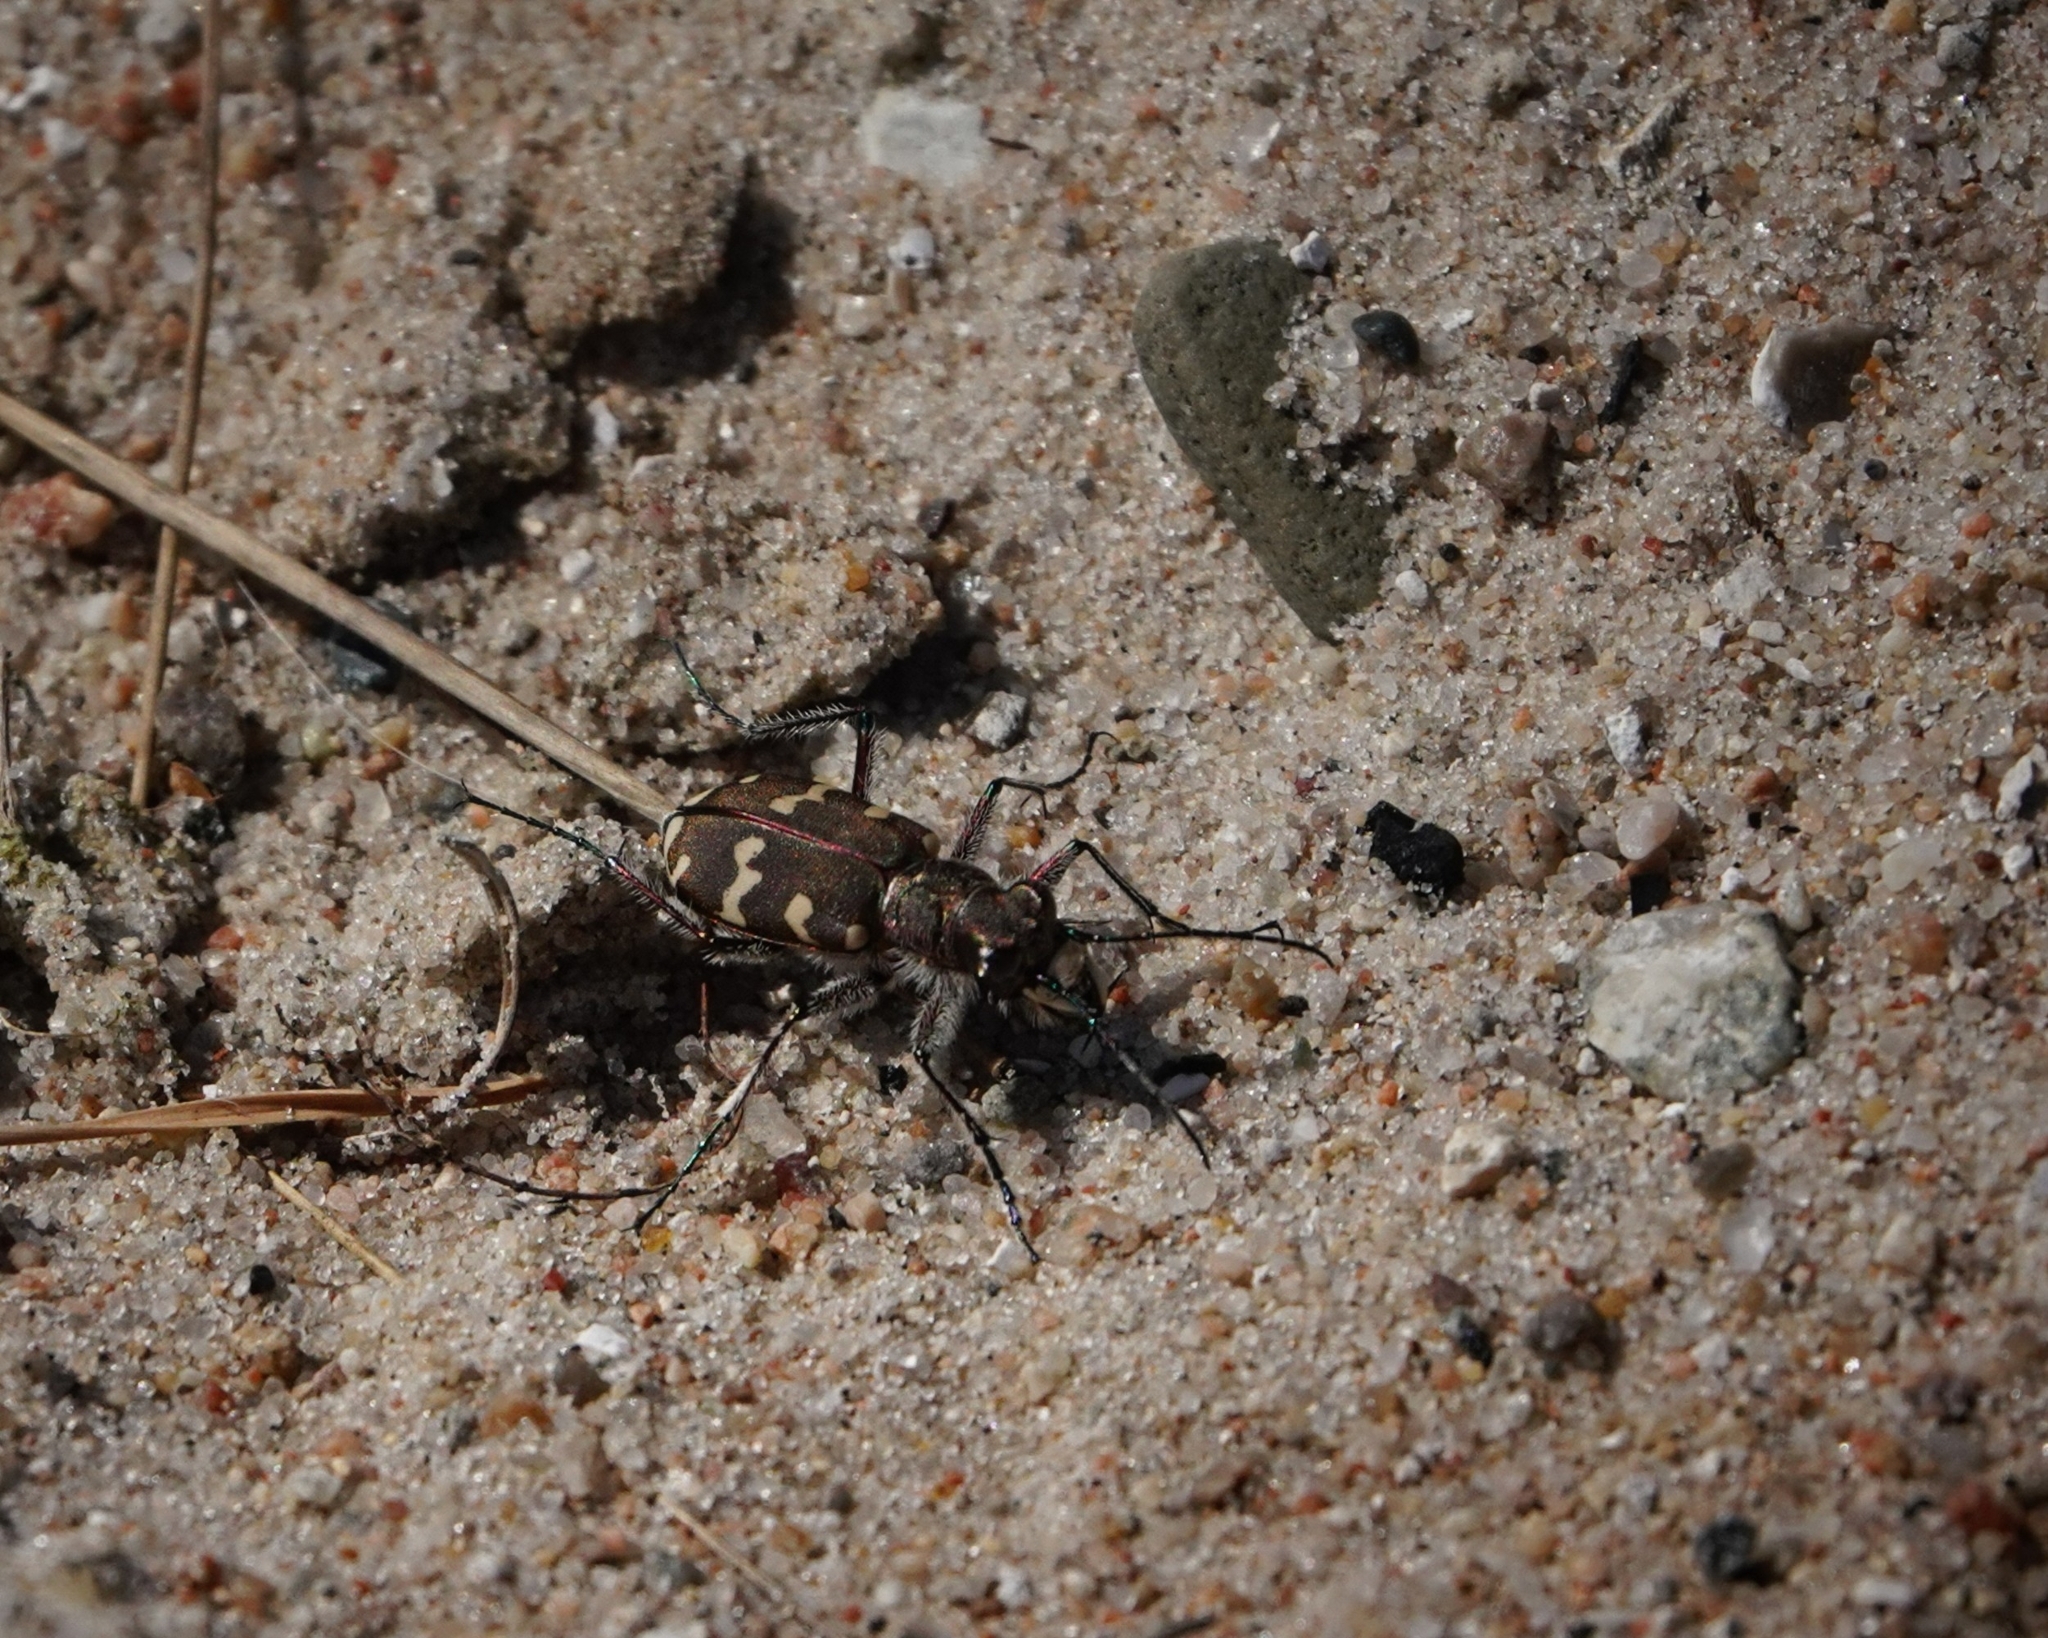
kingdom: Animalia
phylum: Arthropoda
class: Insecta
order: Coleoptera
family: Carabidae
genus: Cicindela
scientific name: Cicindela hybrida
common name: Northern dune tiger beetle
